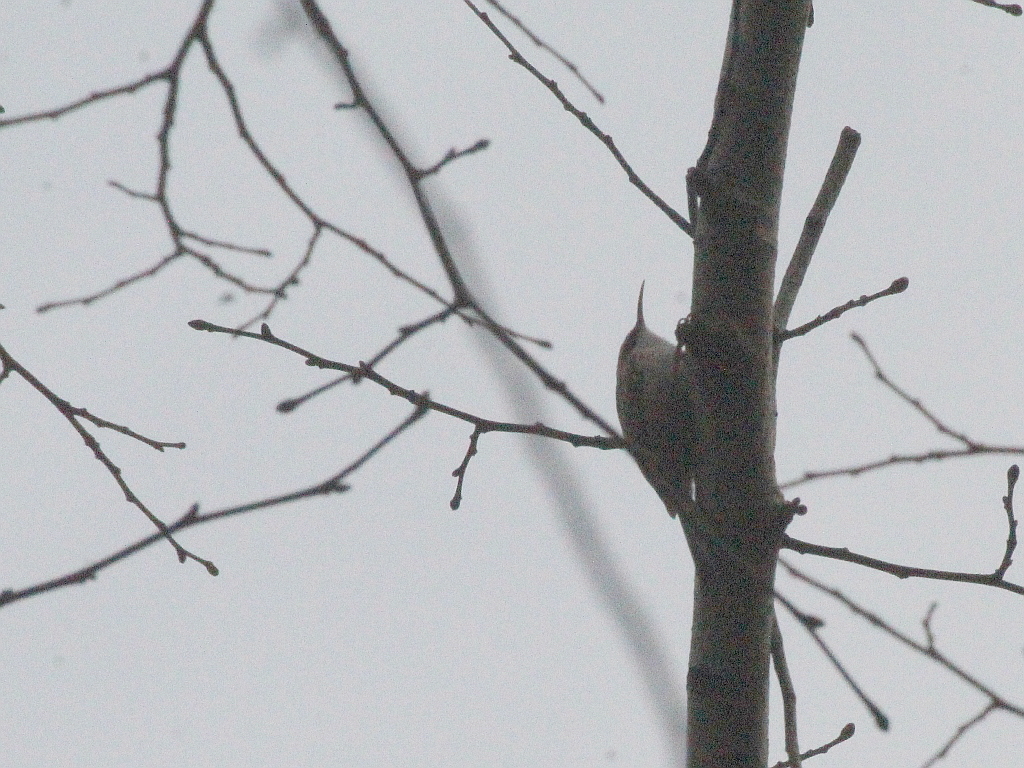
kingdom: Animalia
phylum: Chordata
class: Aves
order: Passeriformes
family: Certhiidae
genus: Certhia
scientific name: Certhia brachydactyla
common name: Short-toed treecreeper
